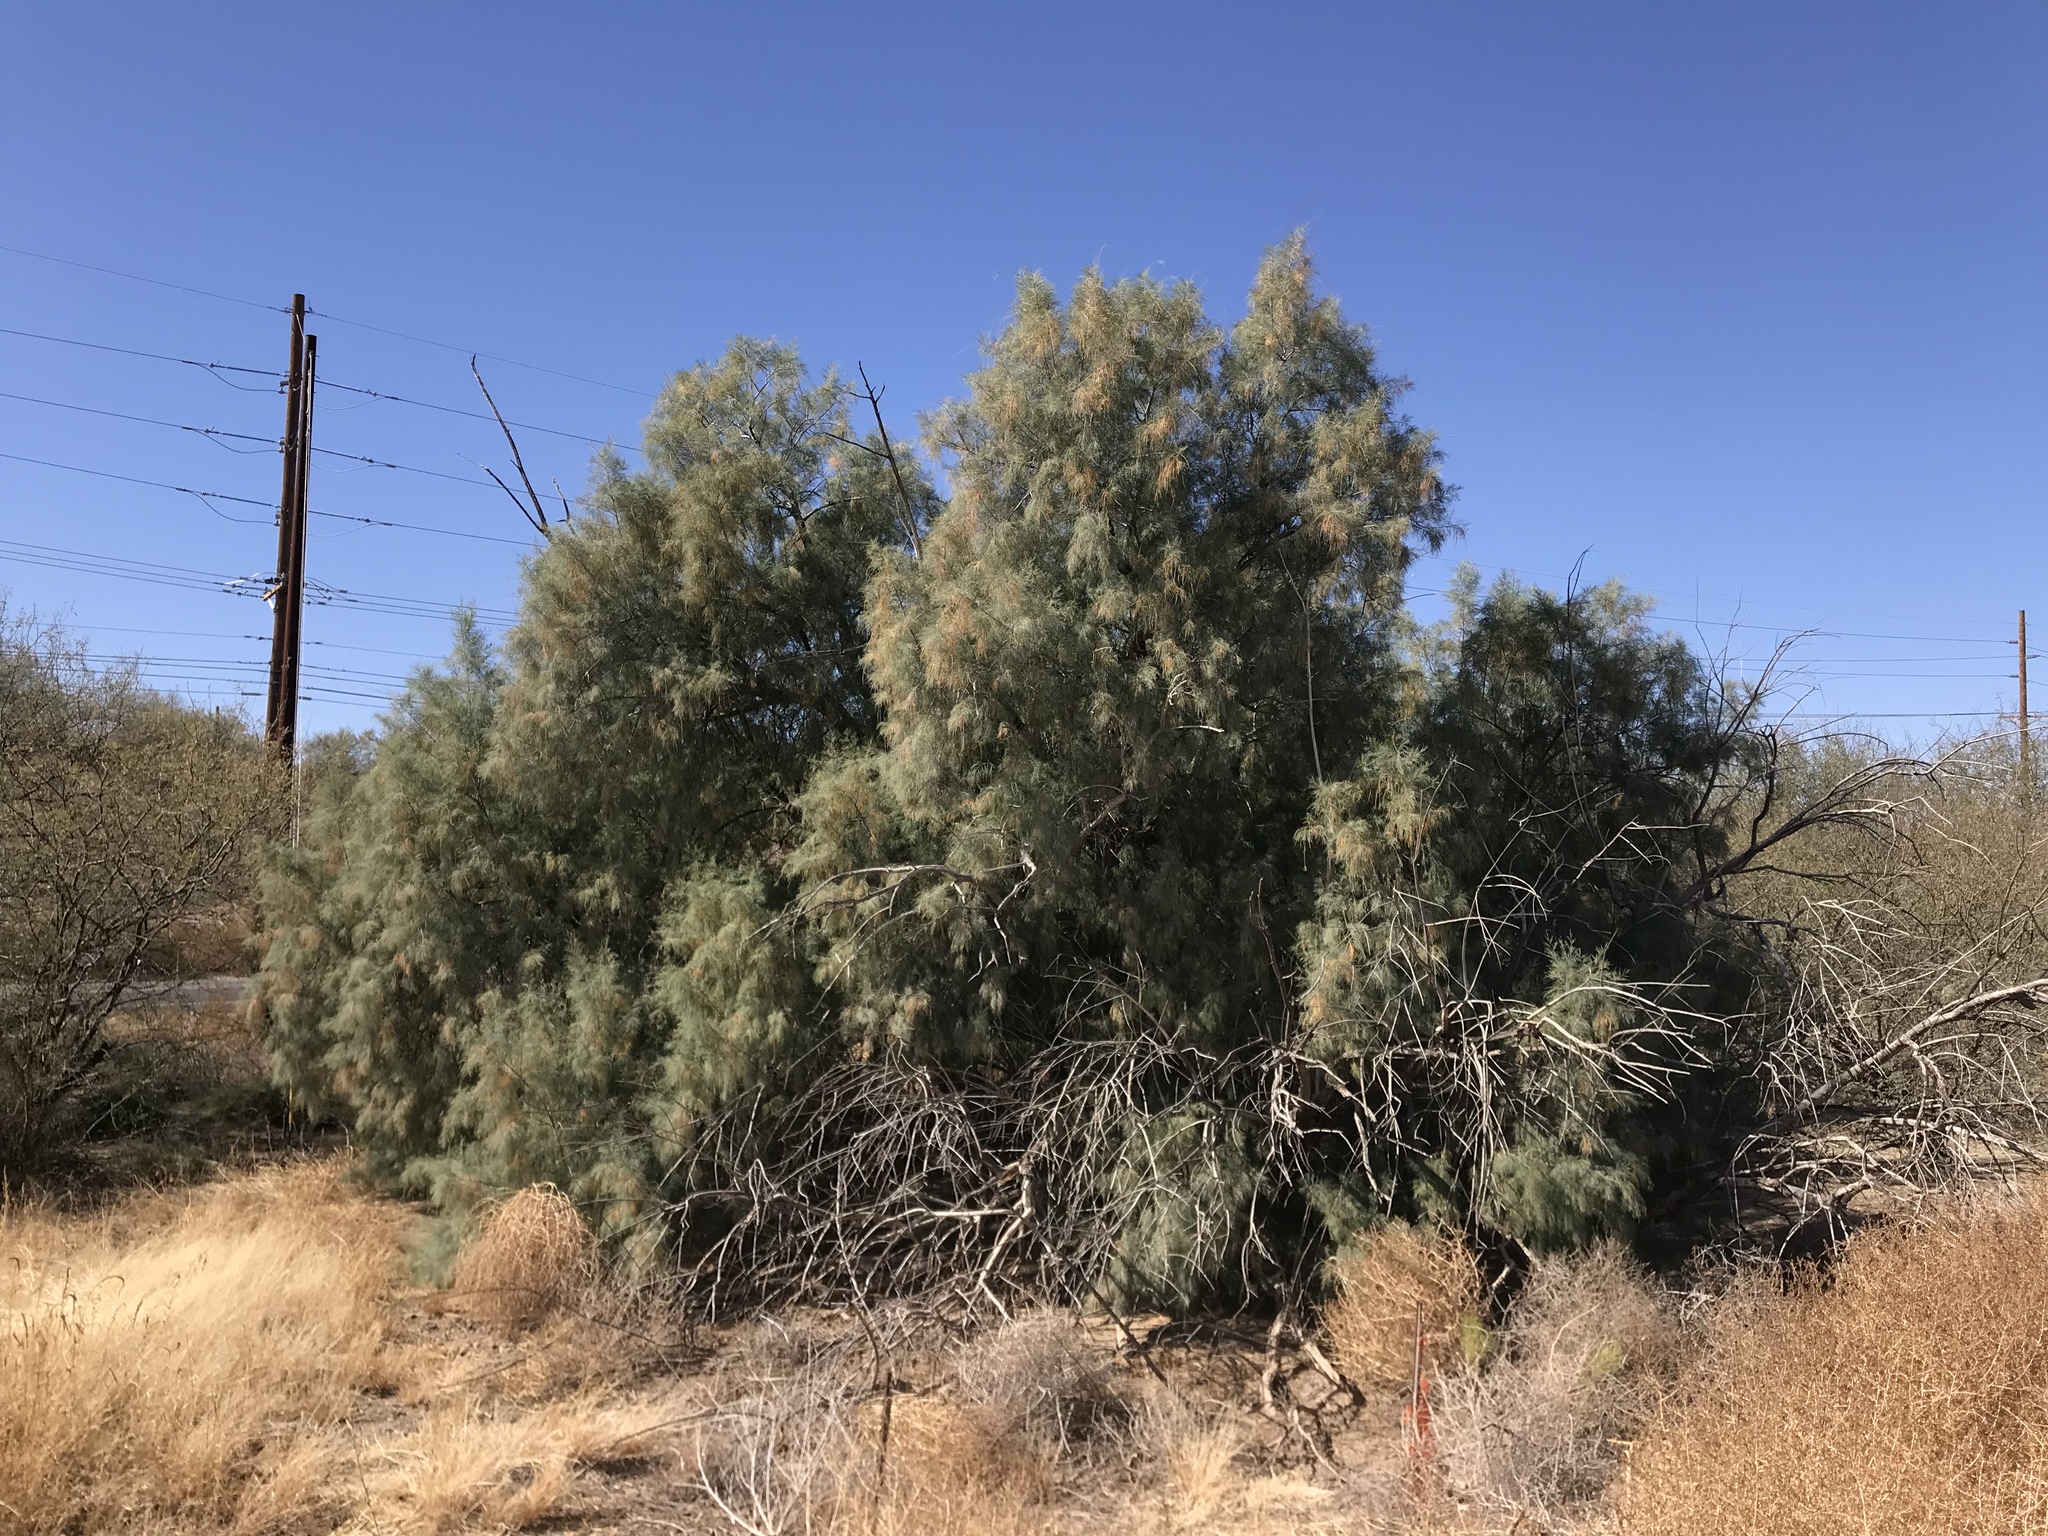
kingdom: Plantae
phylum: Tracheophyta
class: Magnoliopsida
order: Caryophyllales
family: Tamaricaceae
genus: Tamarix
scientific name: Tamarix aphylla
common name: Athel tamarisk
